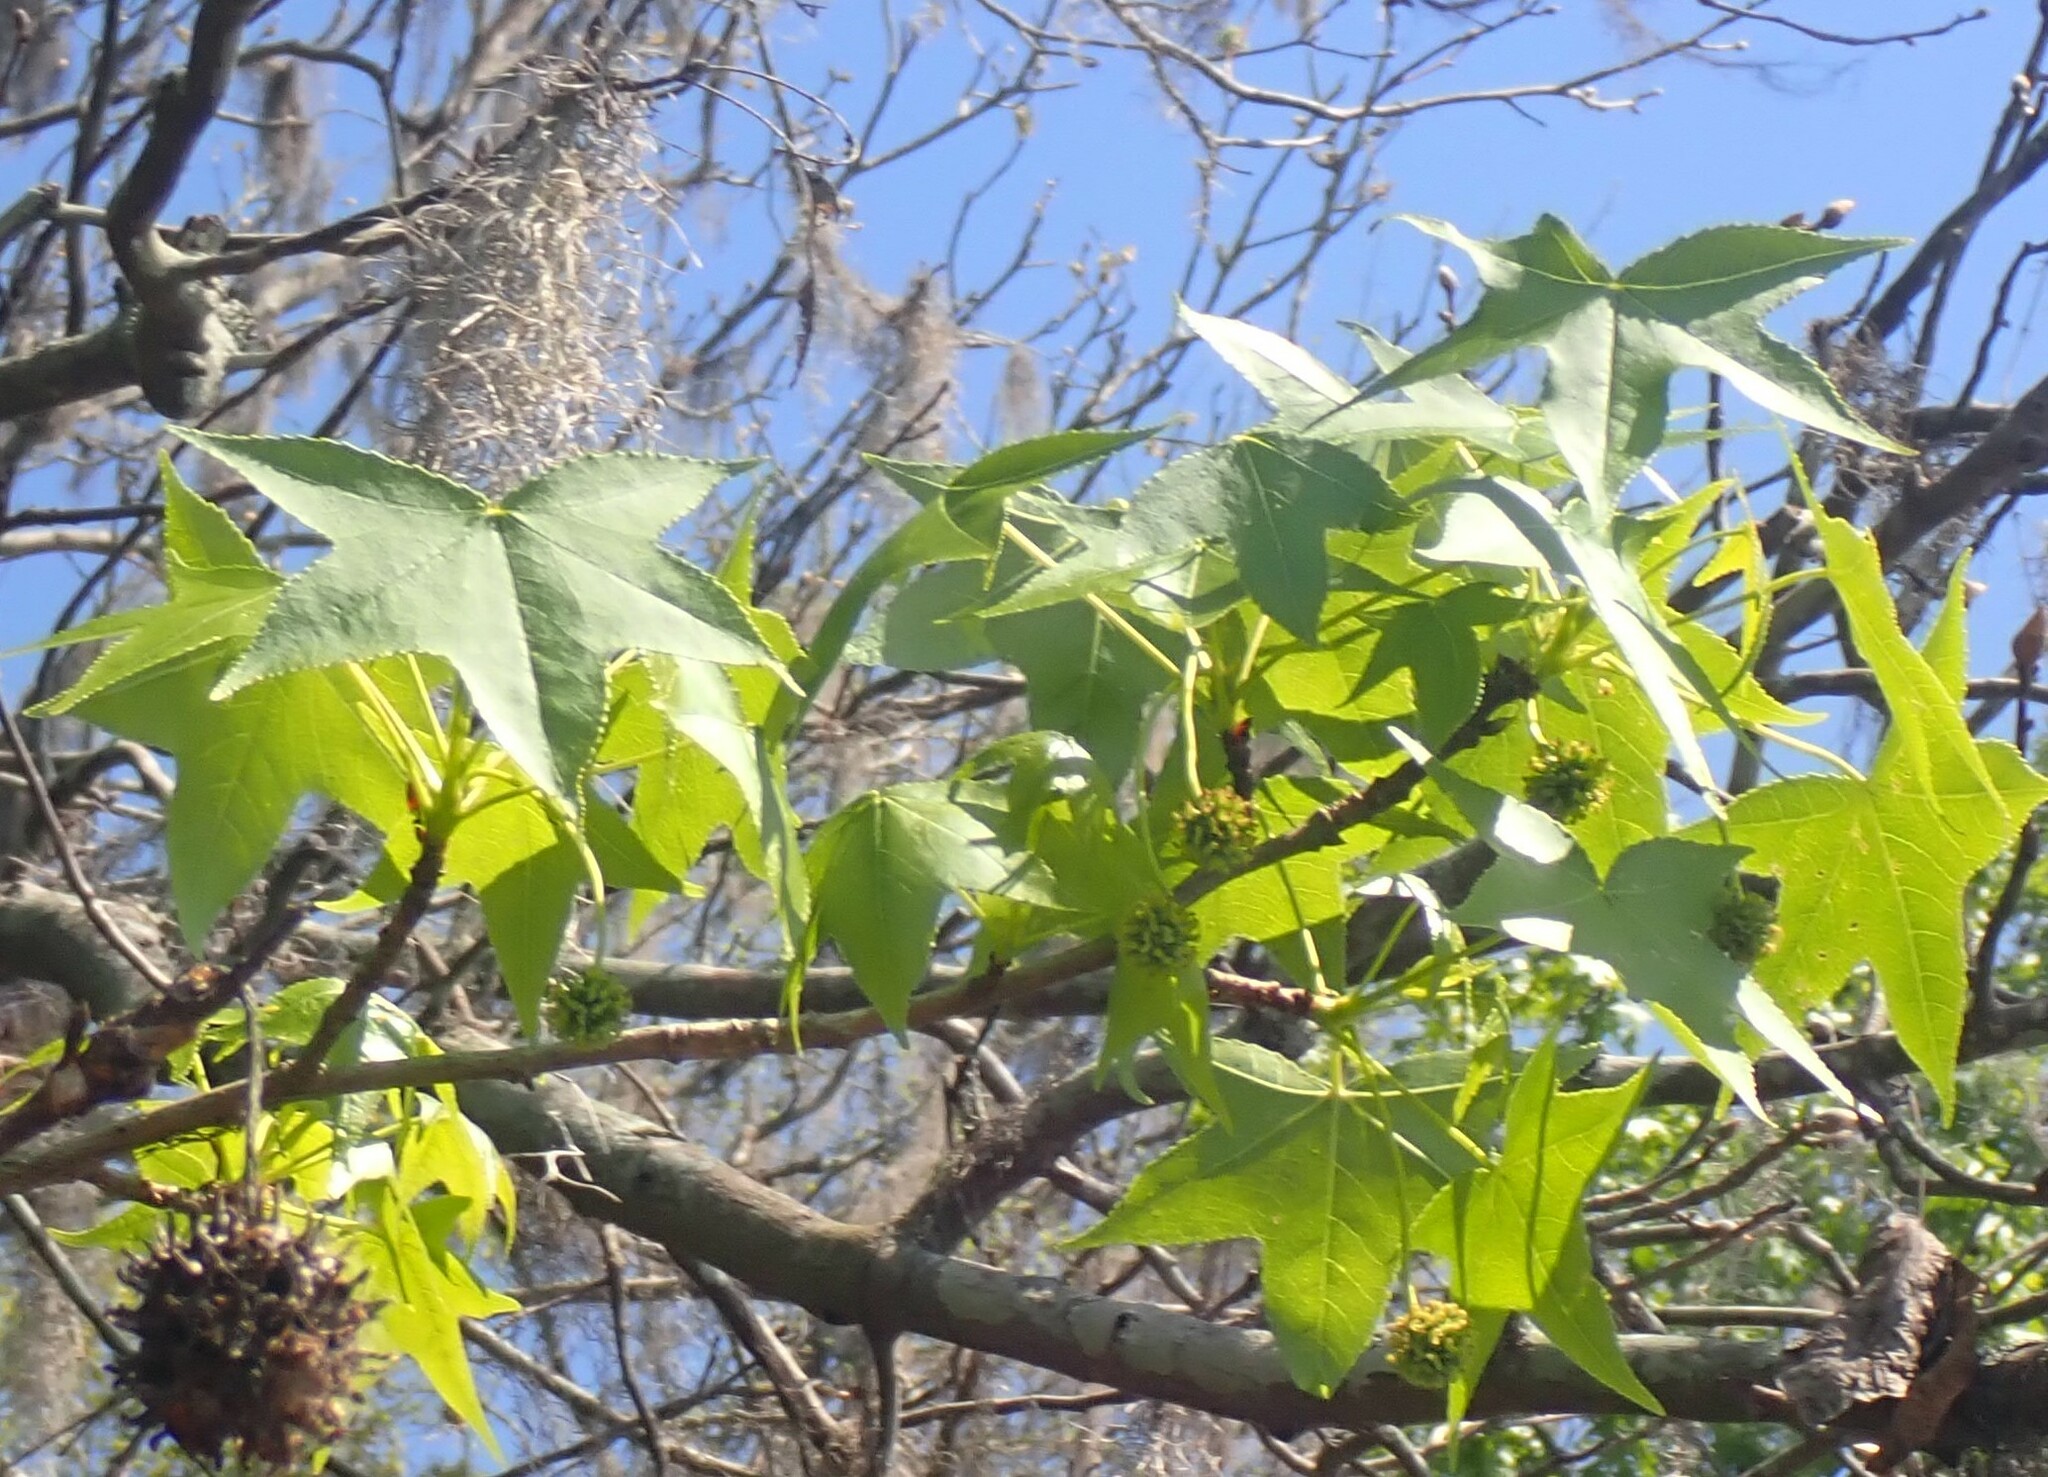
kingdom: Plantae
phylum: Tracheophyta
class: Magnoliopsida
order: Saxifragales
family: Altingiaceae
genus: Liquidambar
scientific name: Liquidambar styraciflua
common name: Sweet gum
